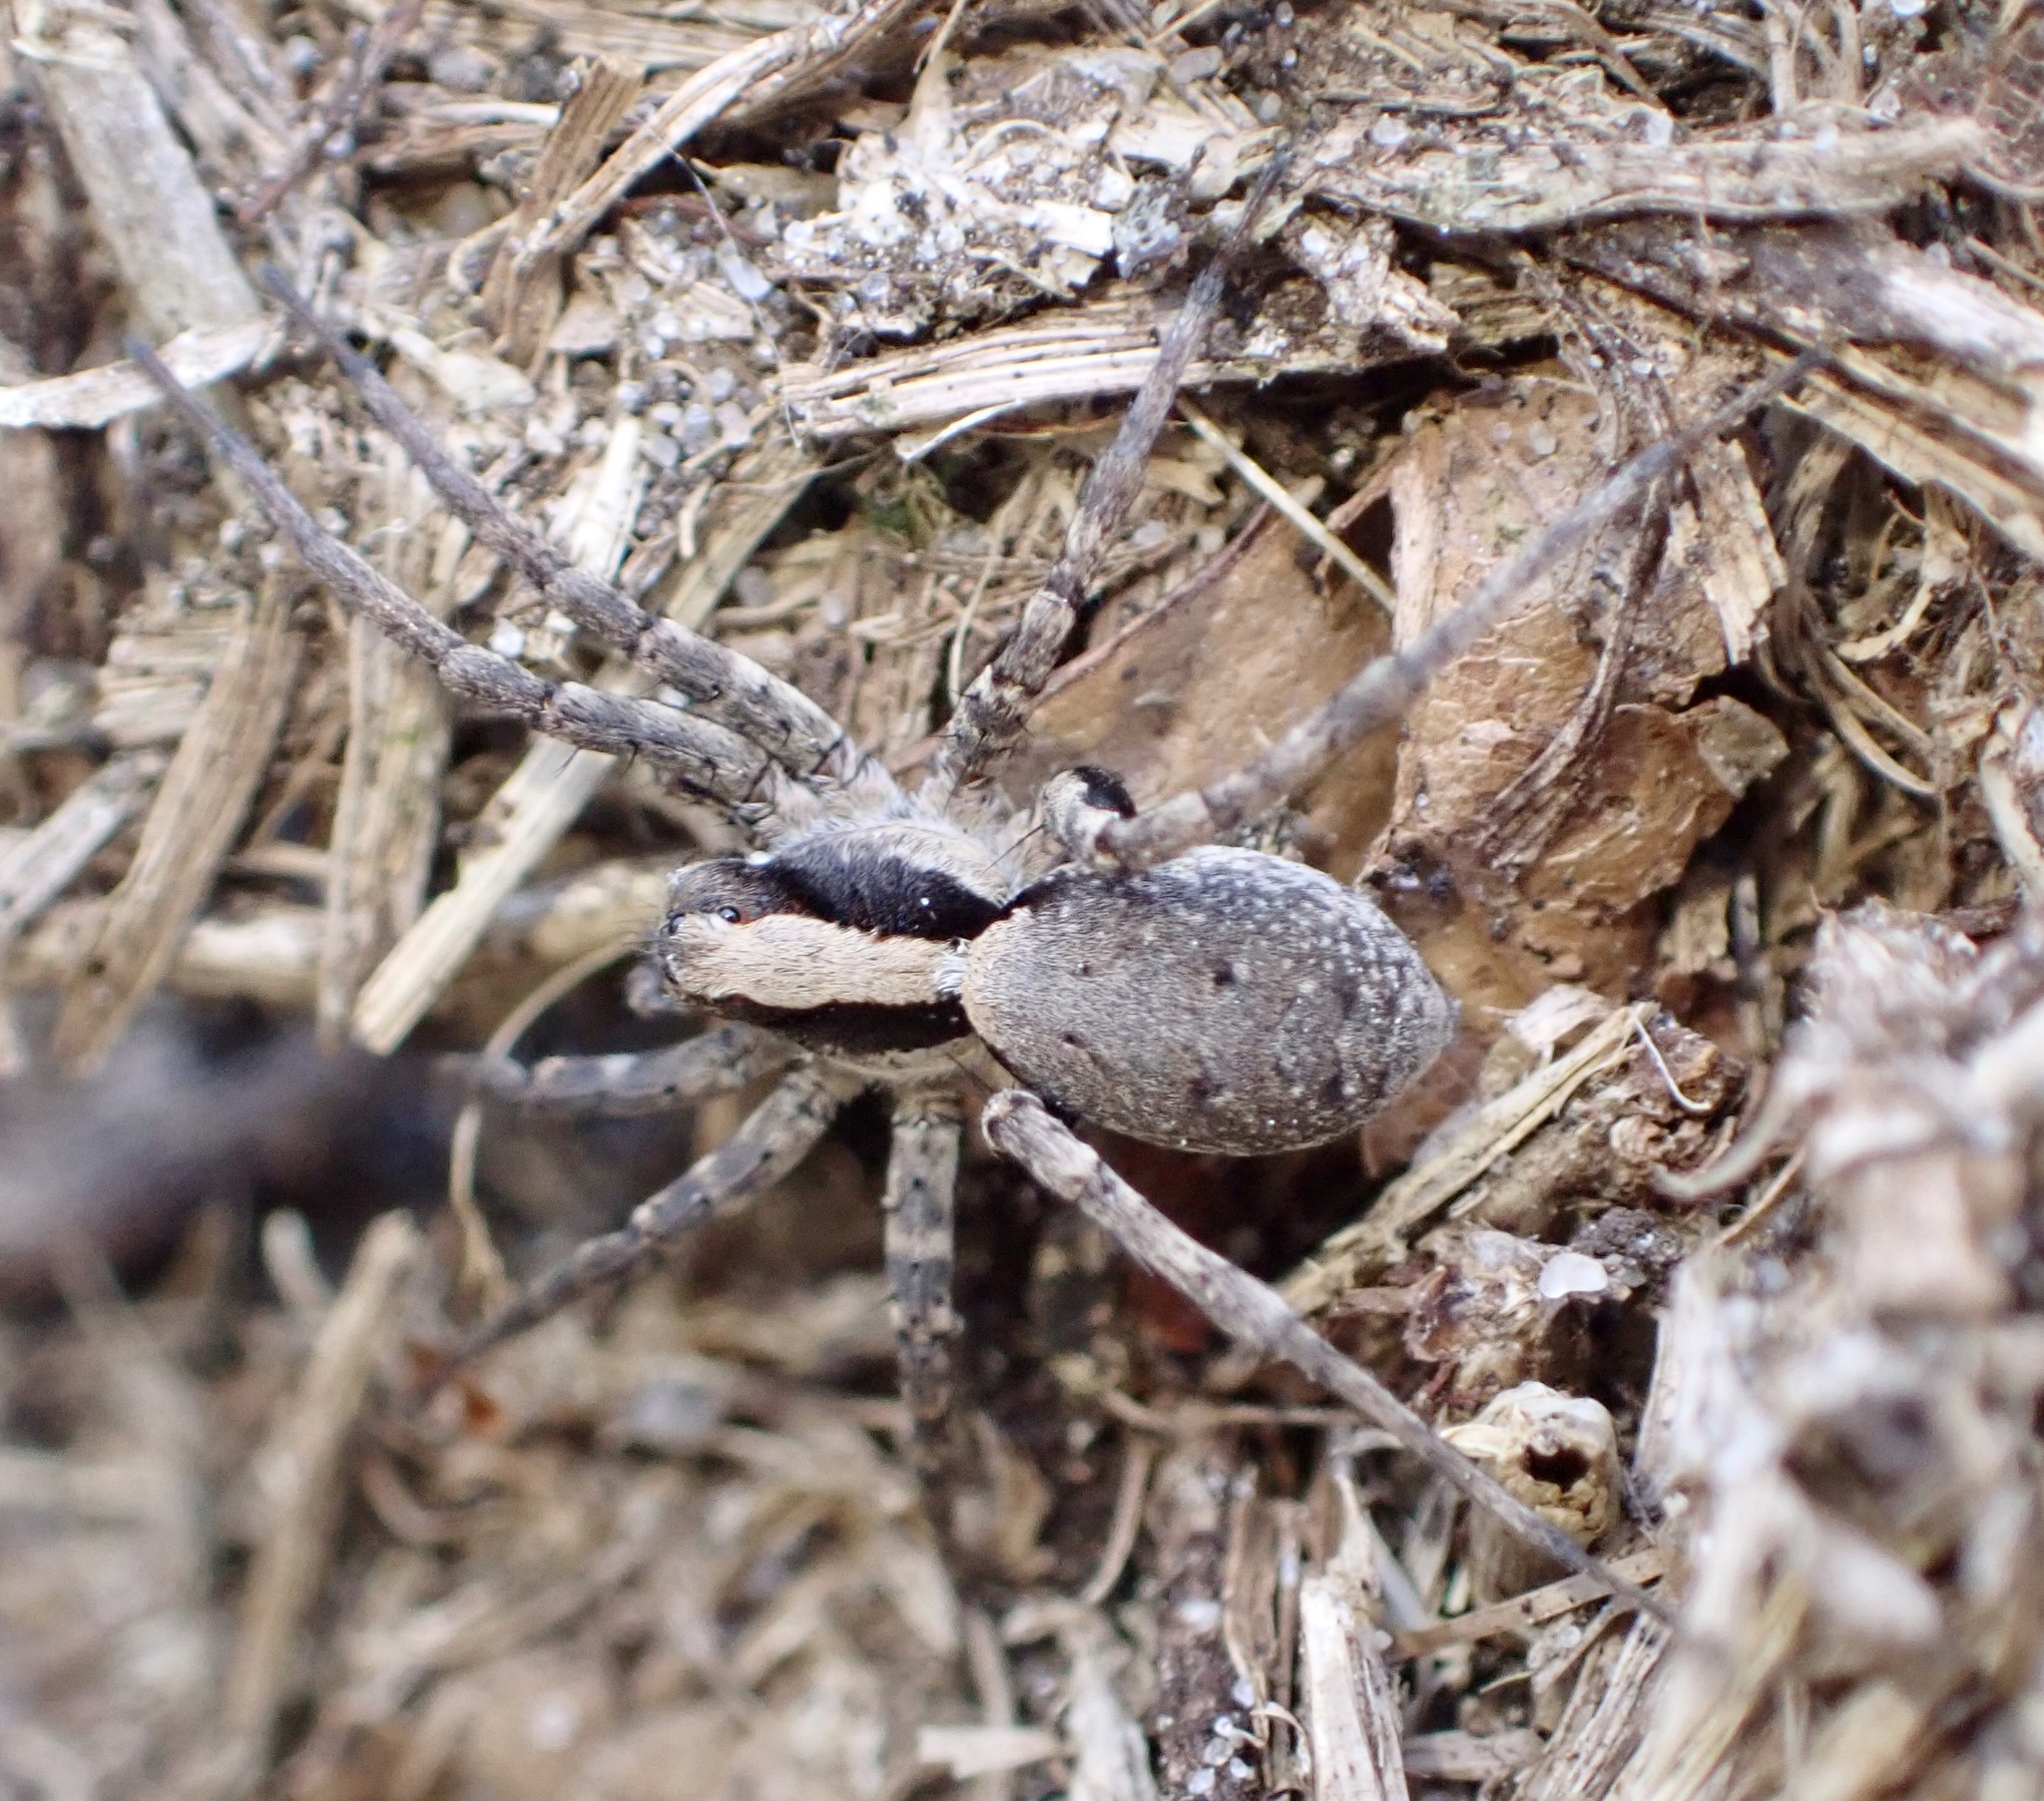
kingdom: Animalia
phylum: Arthropoda
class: Arachnida
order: Araneae
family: Lycosidae
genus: Xerolycosa
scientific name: Xerolycosa nemoralis
